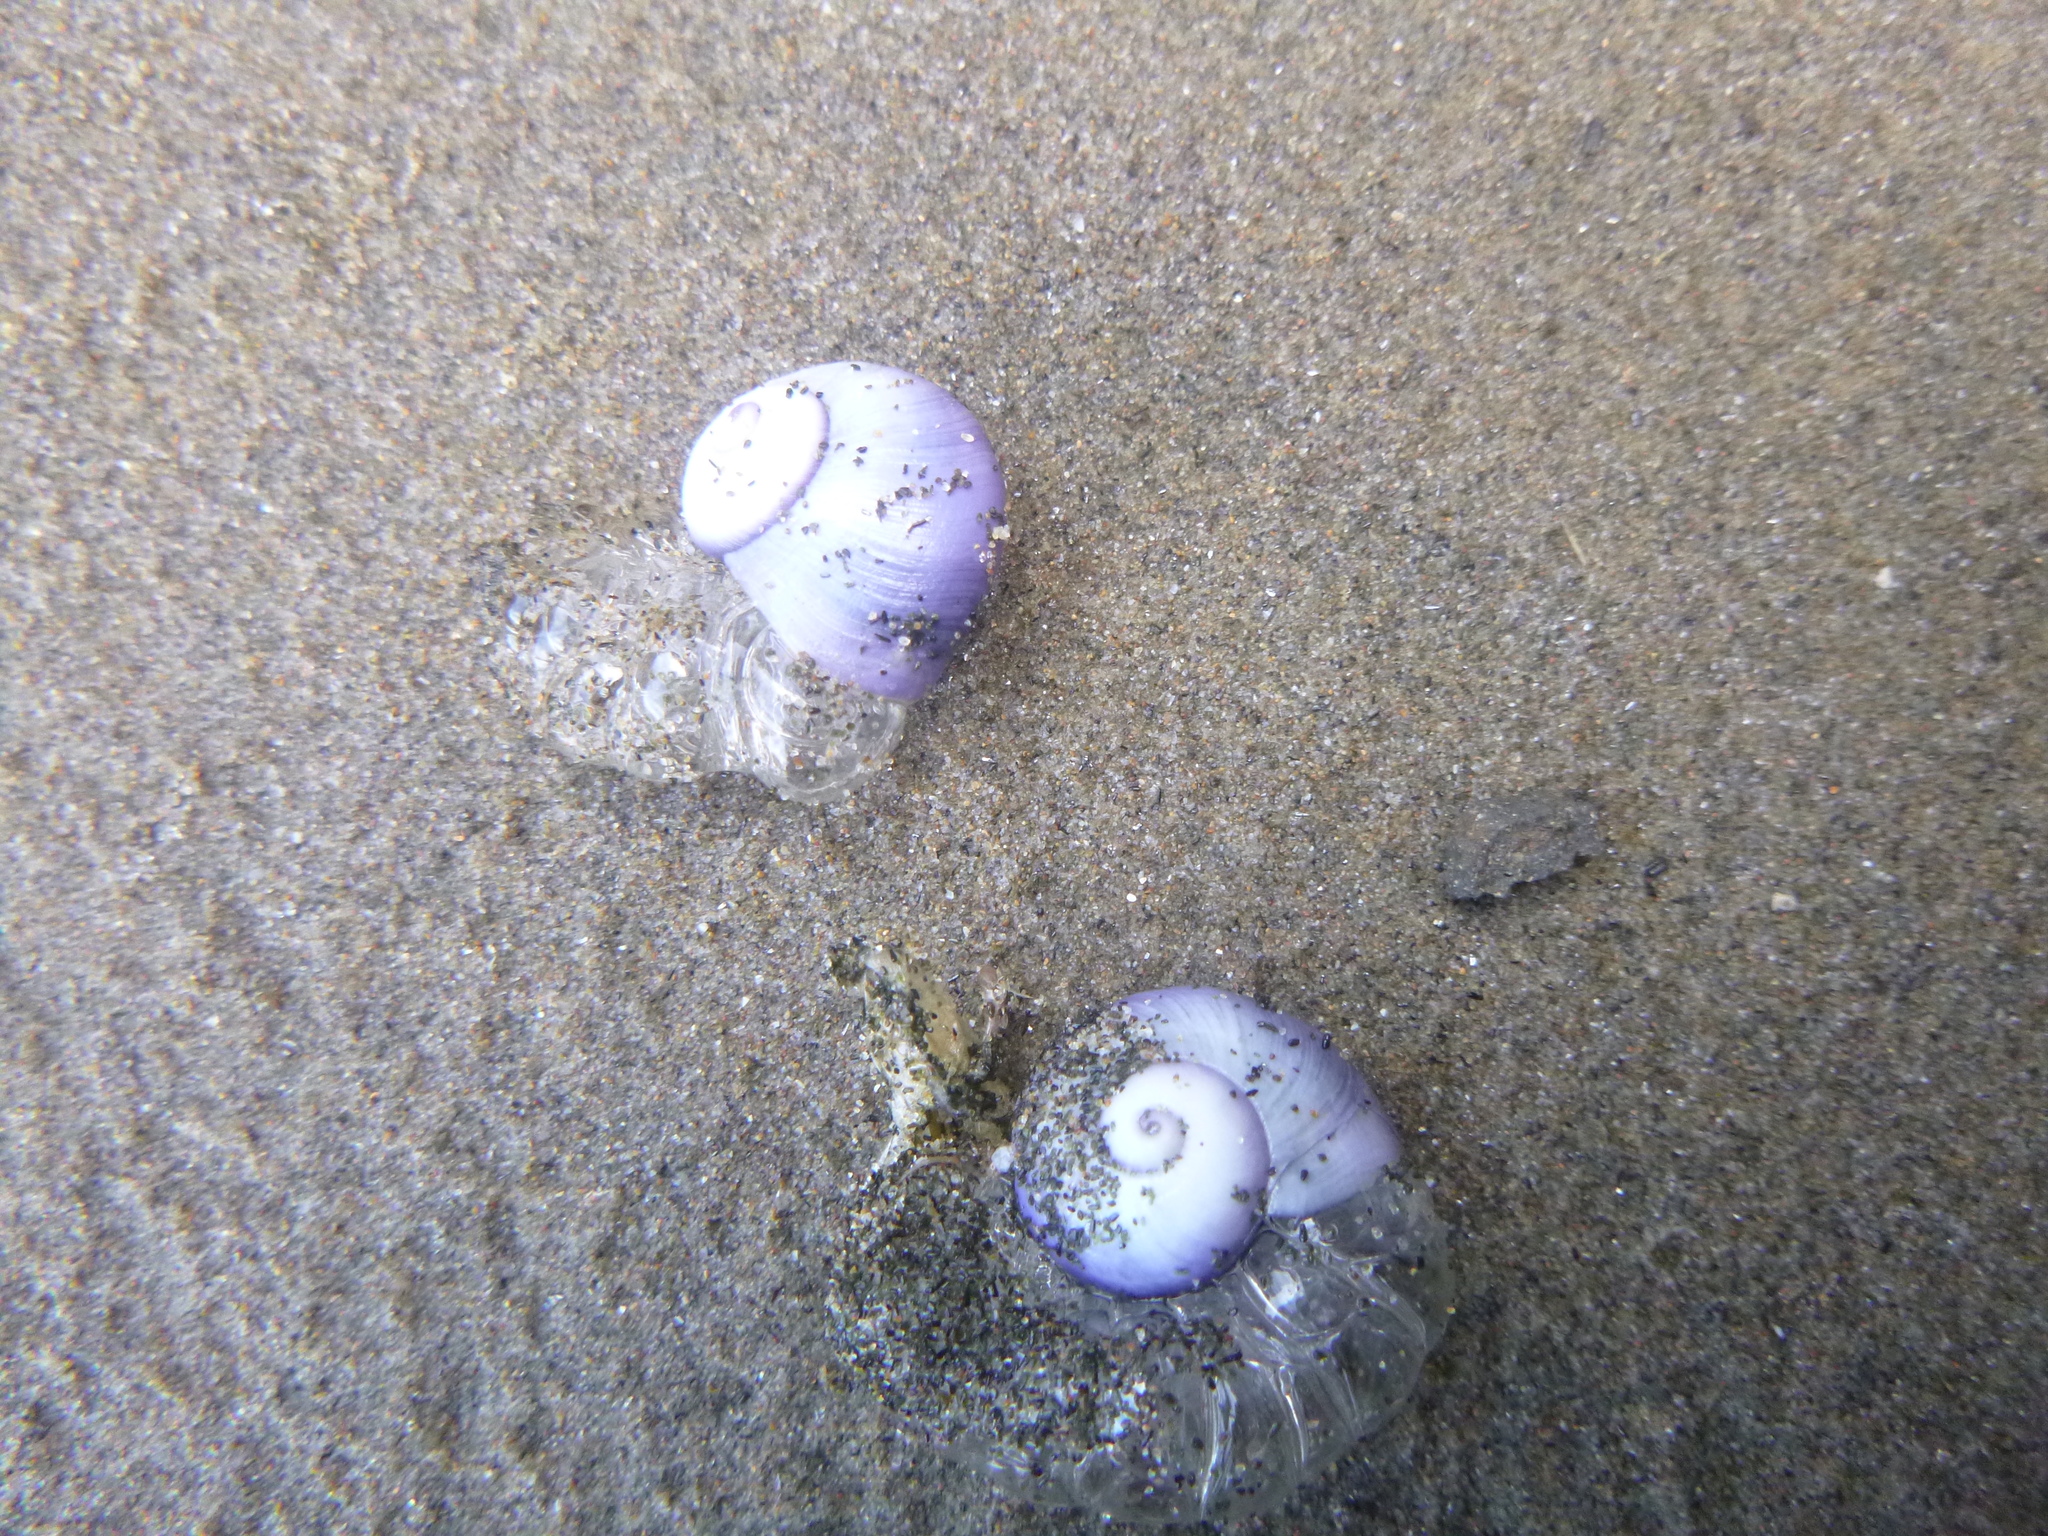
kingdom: Animalia
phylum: Mollusca
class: Gastropoda
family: Epitoniidae
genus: Janthina
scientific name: Janthina janthina
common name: Common janthina
